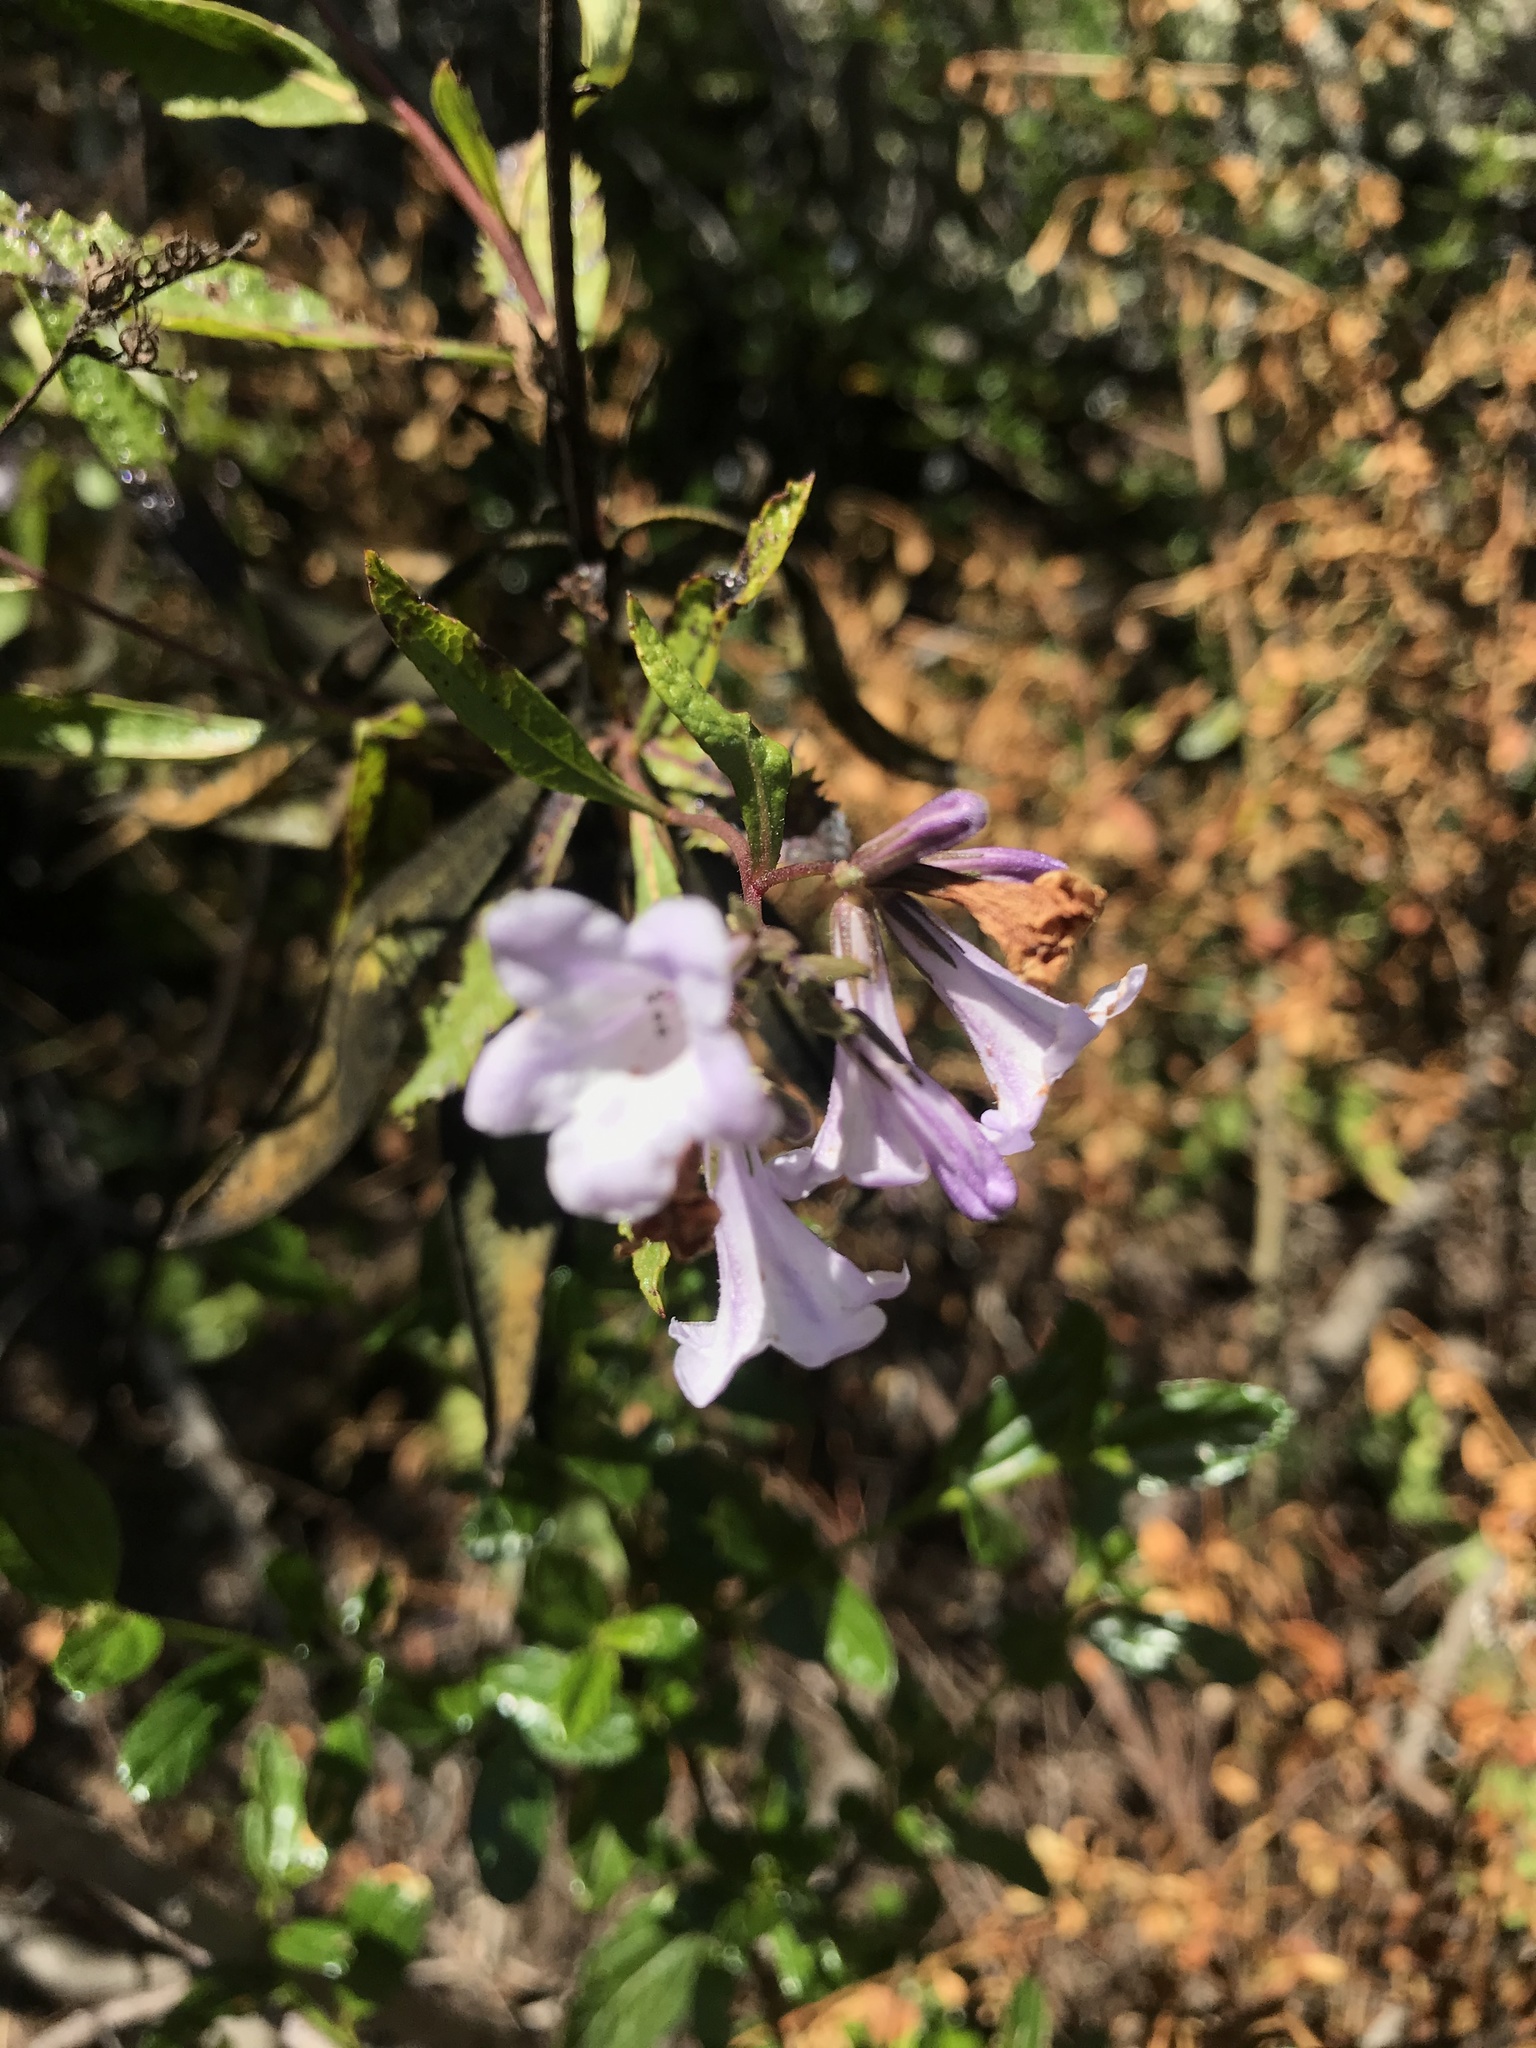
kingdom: Plantae
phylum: Tracheophyta
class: Magnoliopsida
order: Boraginales
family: Namaceae
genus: Eriodictyon
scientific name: Eriodictyon californicum
